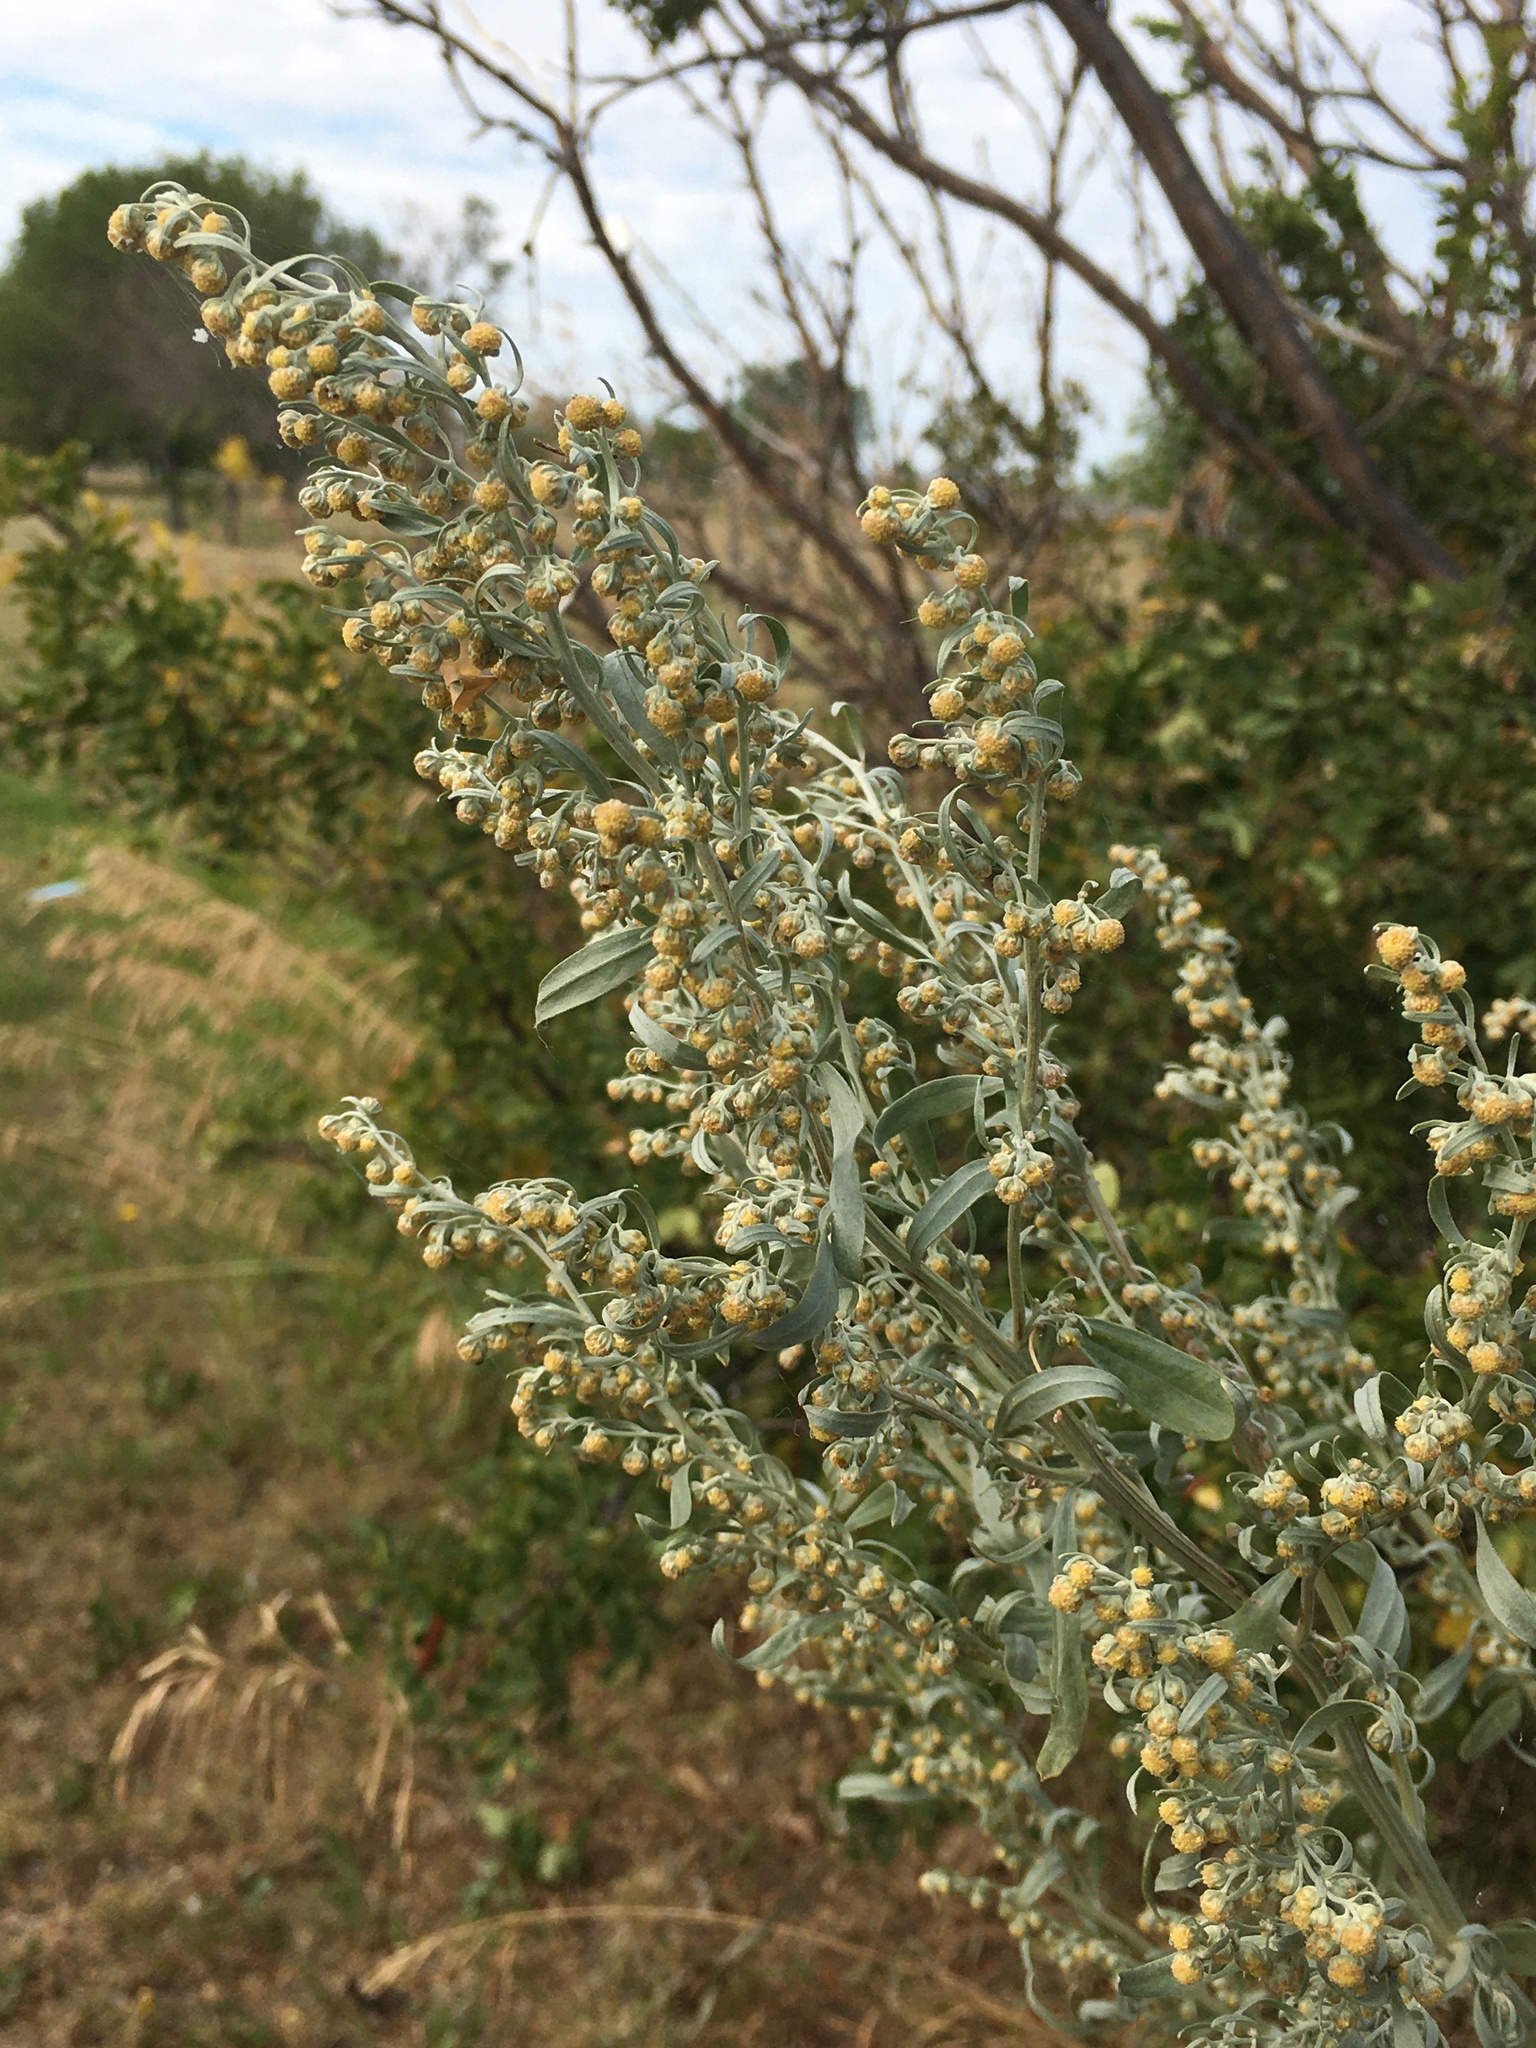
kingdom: Plantae
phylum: Tracheophyta
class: Magnoliopsida
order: Asterales
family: Asteraceae
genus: Artemisia
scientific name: Artemisia absinthium
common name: Wormwood
